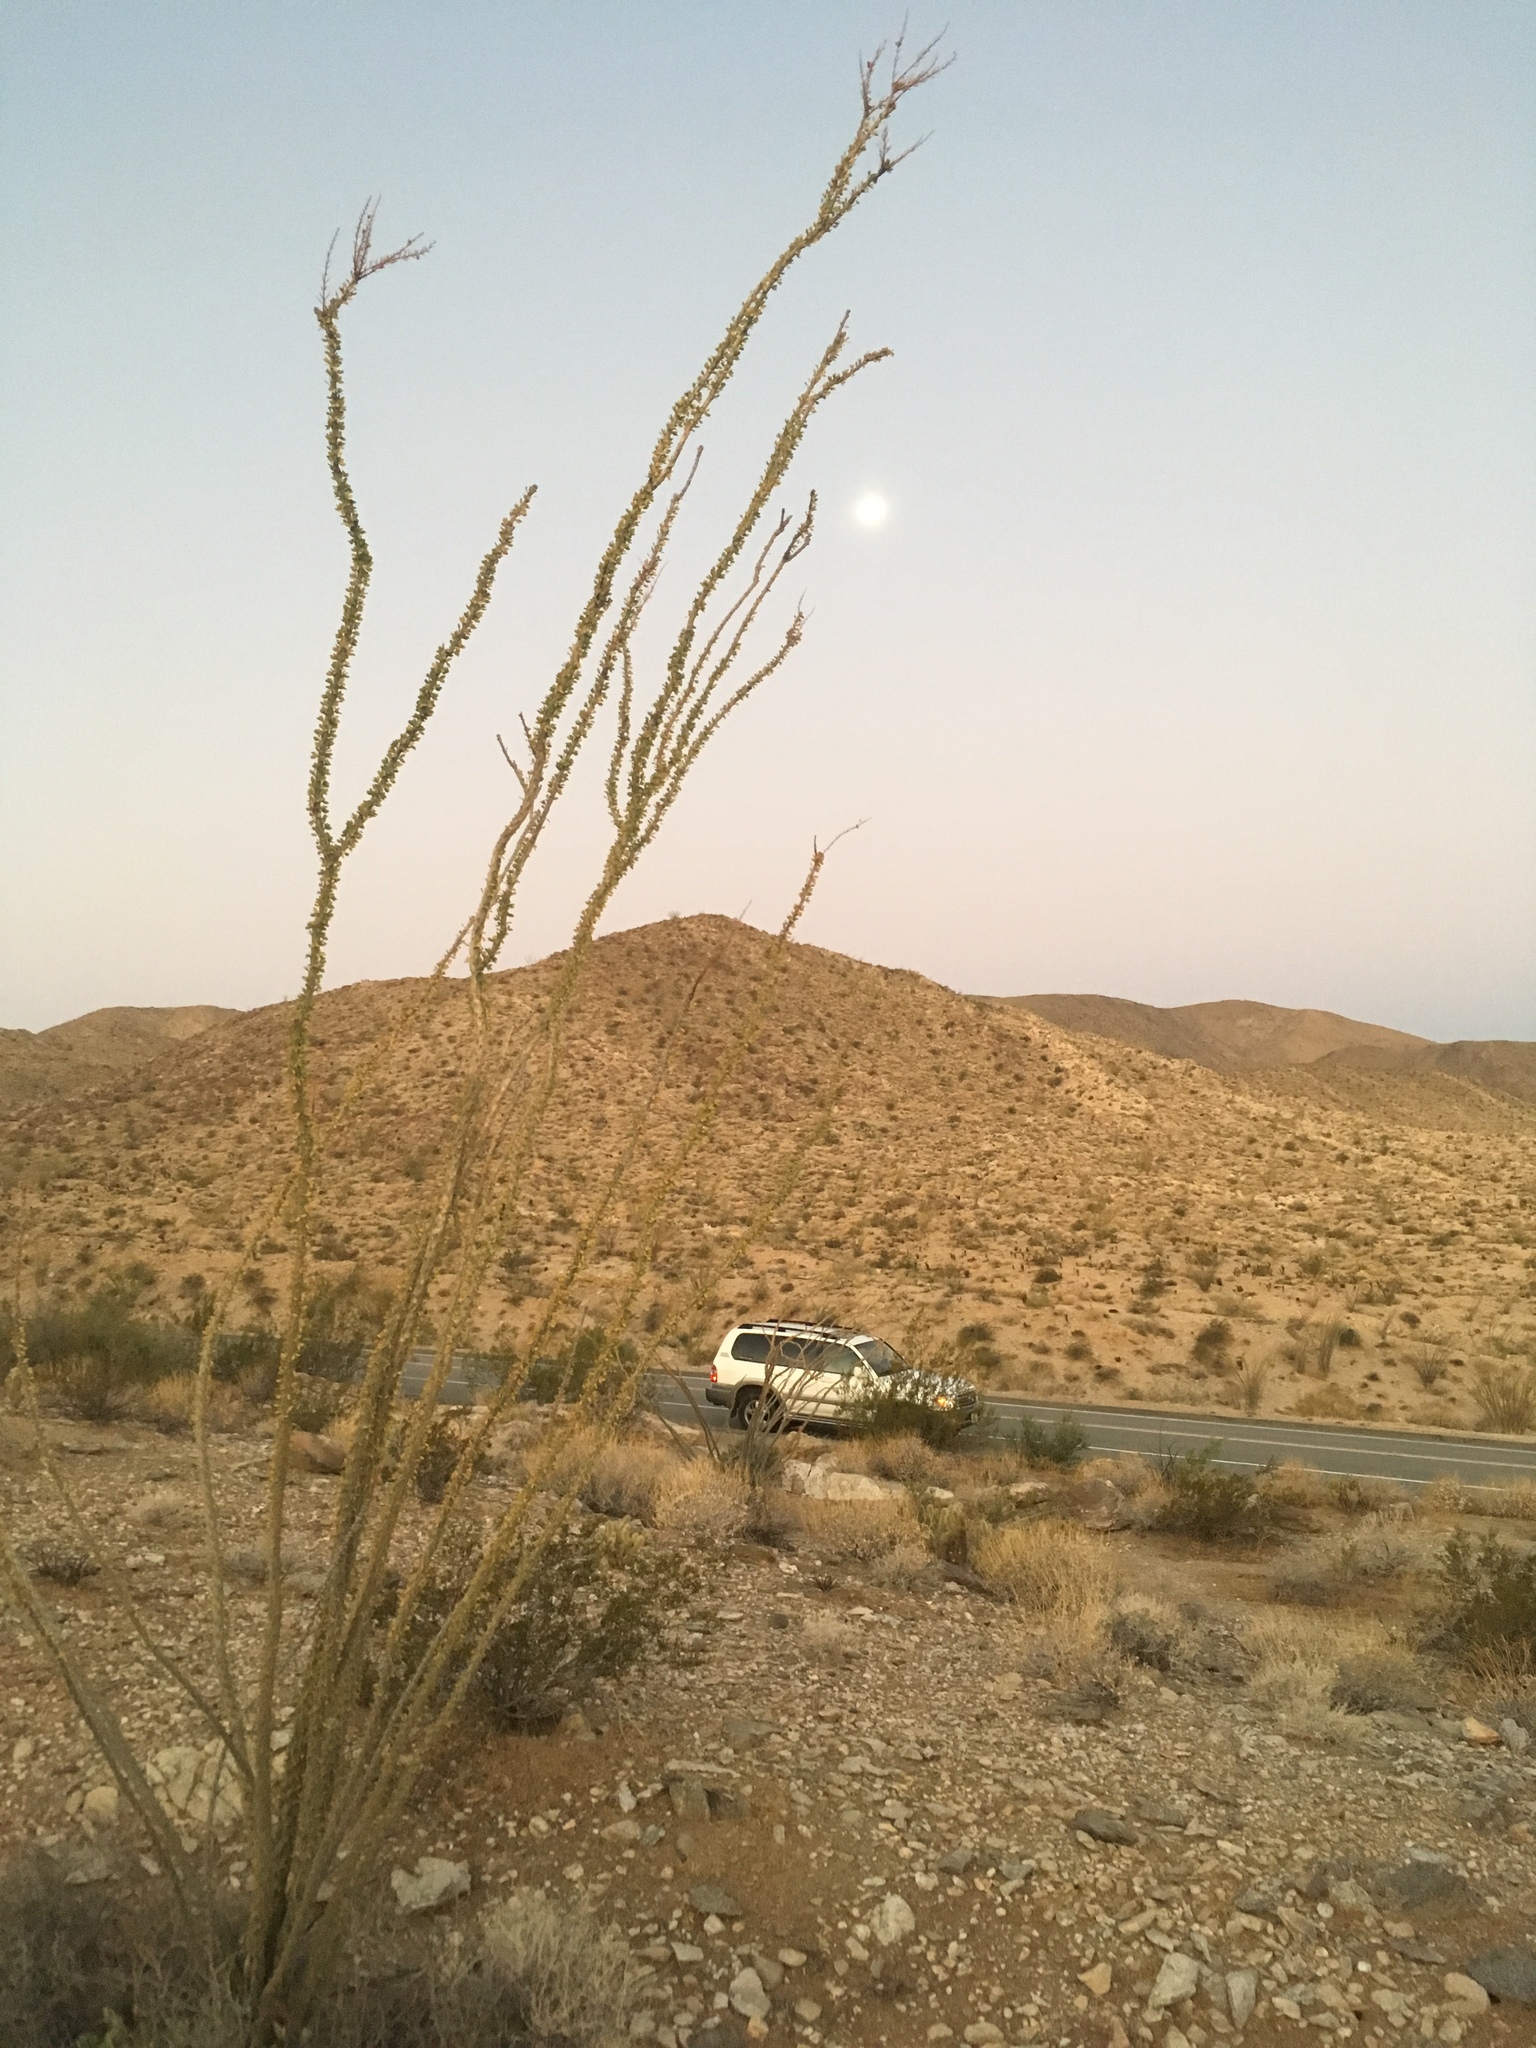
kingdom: Plantae
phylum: Tracheophyta
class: Magnoliopsida
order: Ericales
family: Fouquieriaceae
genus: Fouquieria
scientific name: Fouquieria splendens
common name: Vine-cactus
